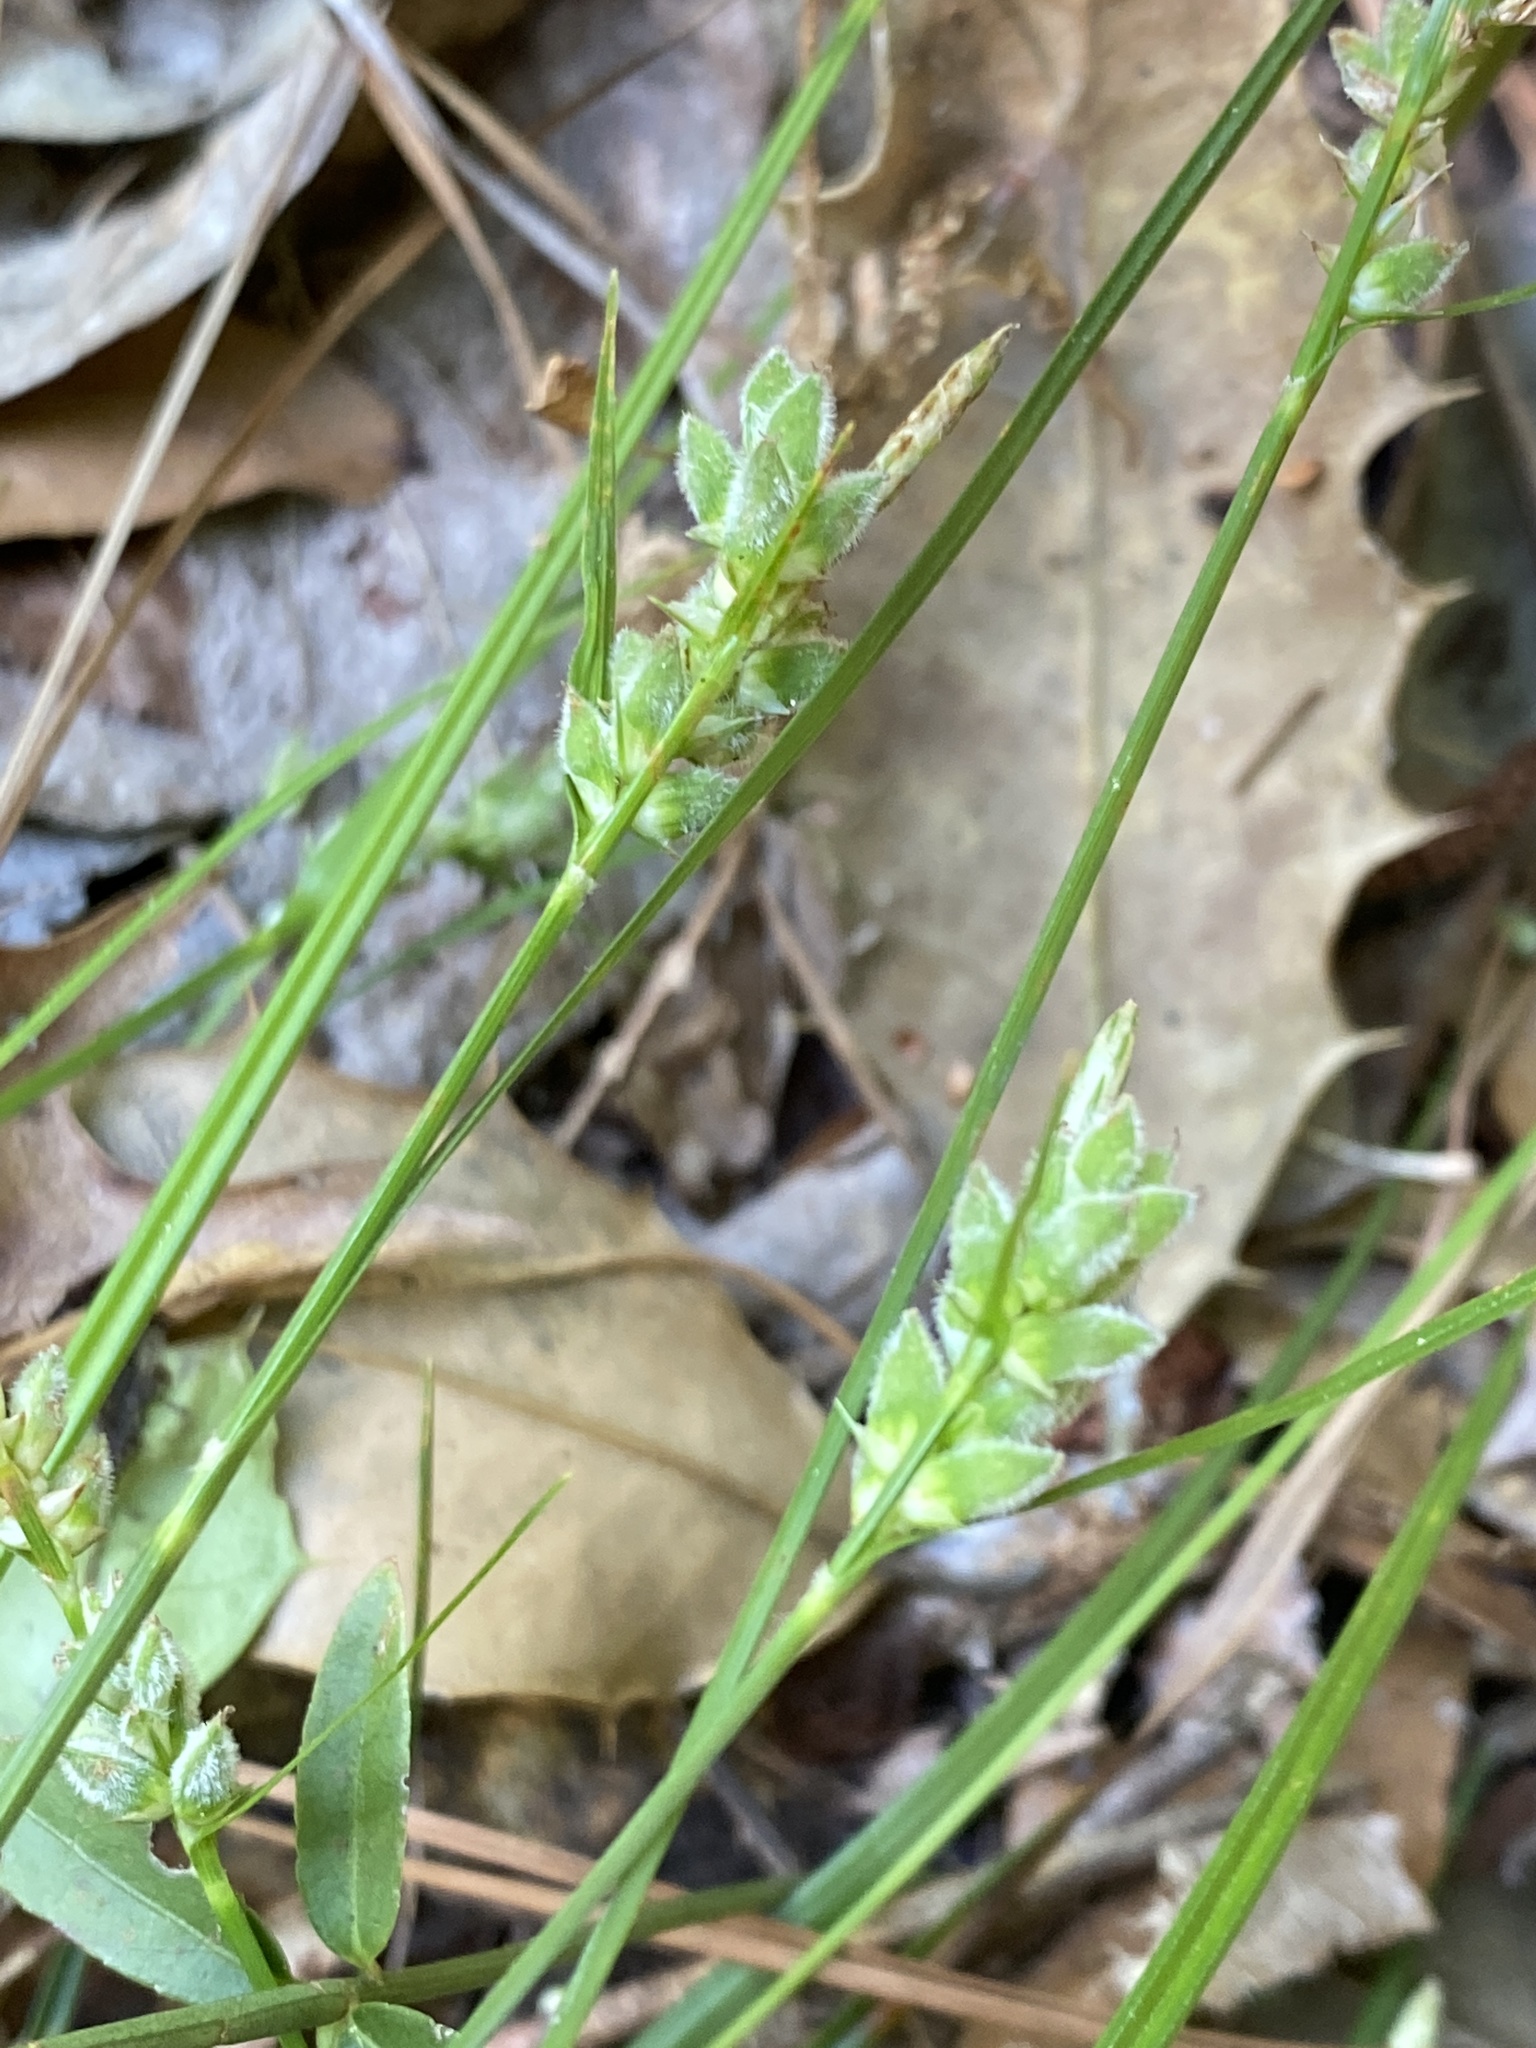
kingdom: Plantae
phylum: Tracheophyta
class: Liliopsida
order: Poales
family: Cyperaceae
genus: Carex
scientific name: Carex dasycarpa
